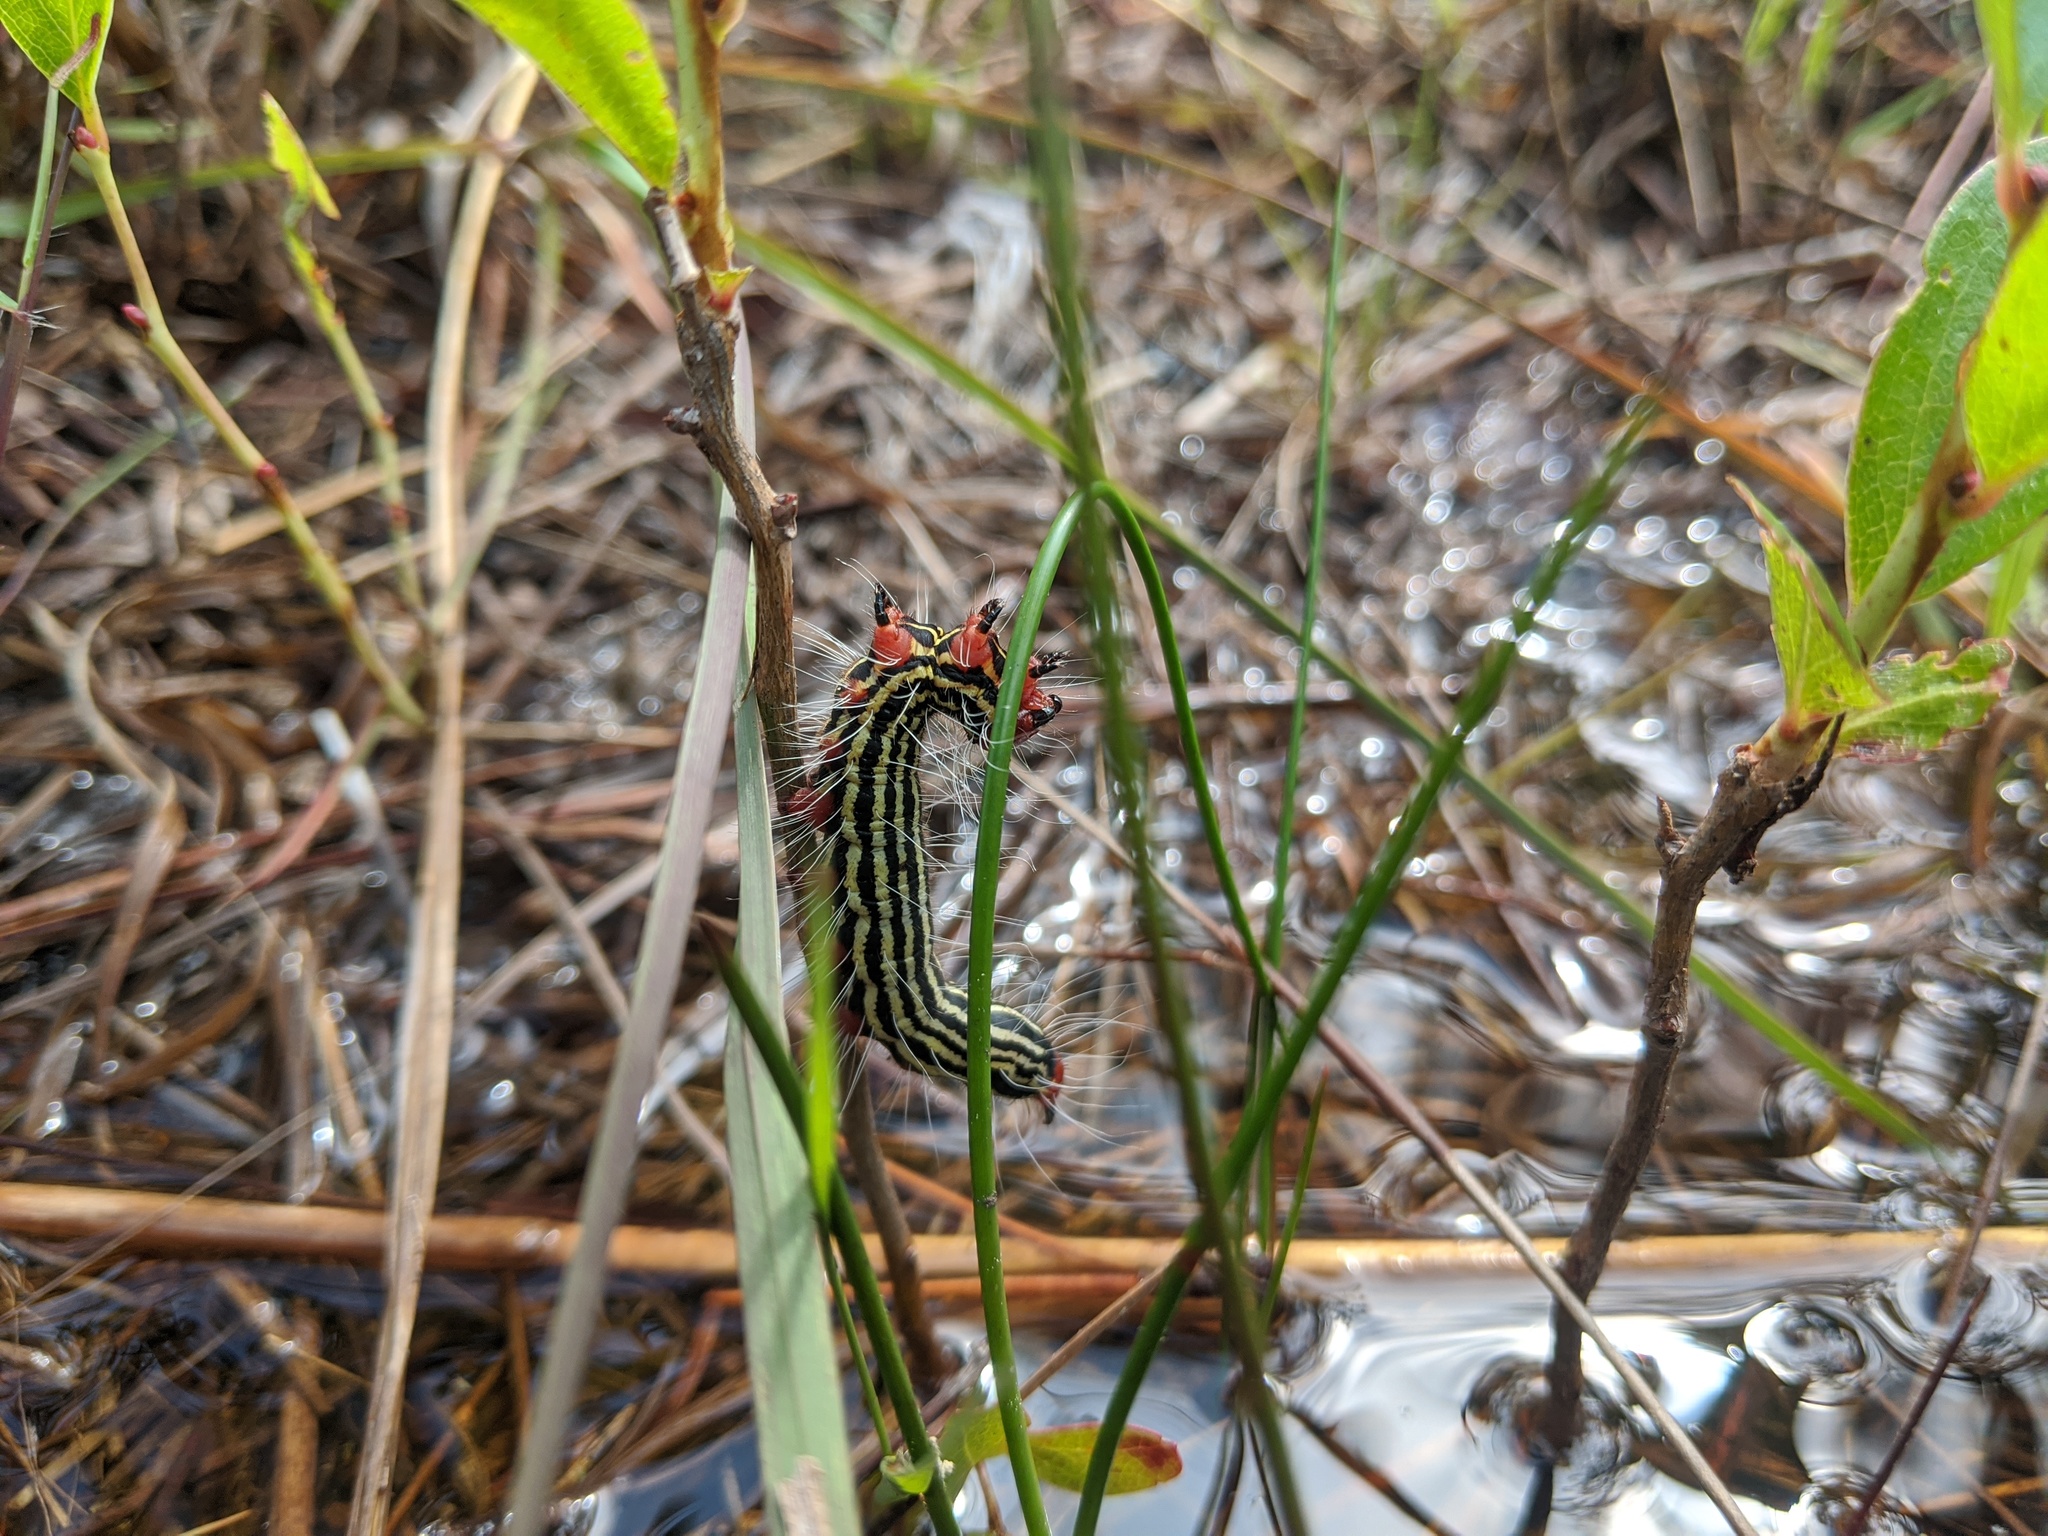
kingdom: Animalia
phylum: Arthropoda
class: Insecta
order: Lepidoptera
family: Notodontidae
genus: Datana
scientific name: Datana major
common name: Azalea caterpillar
